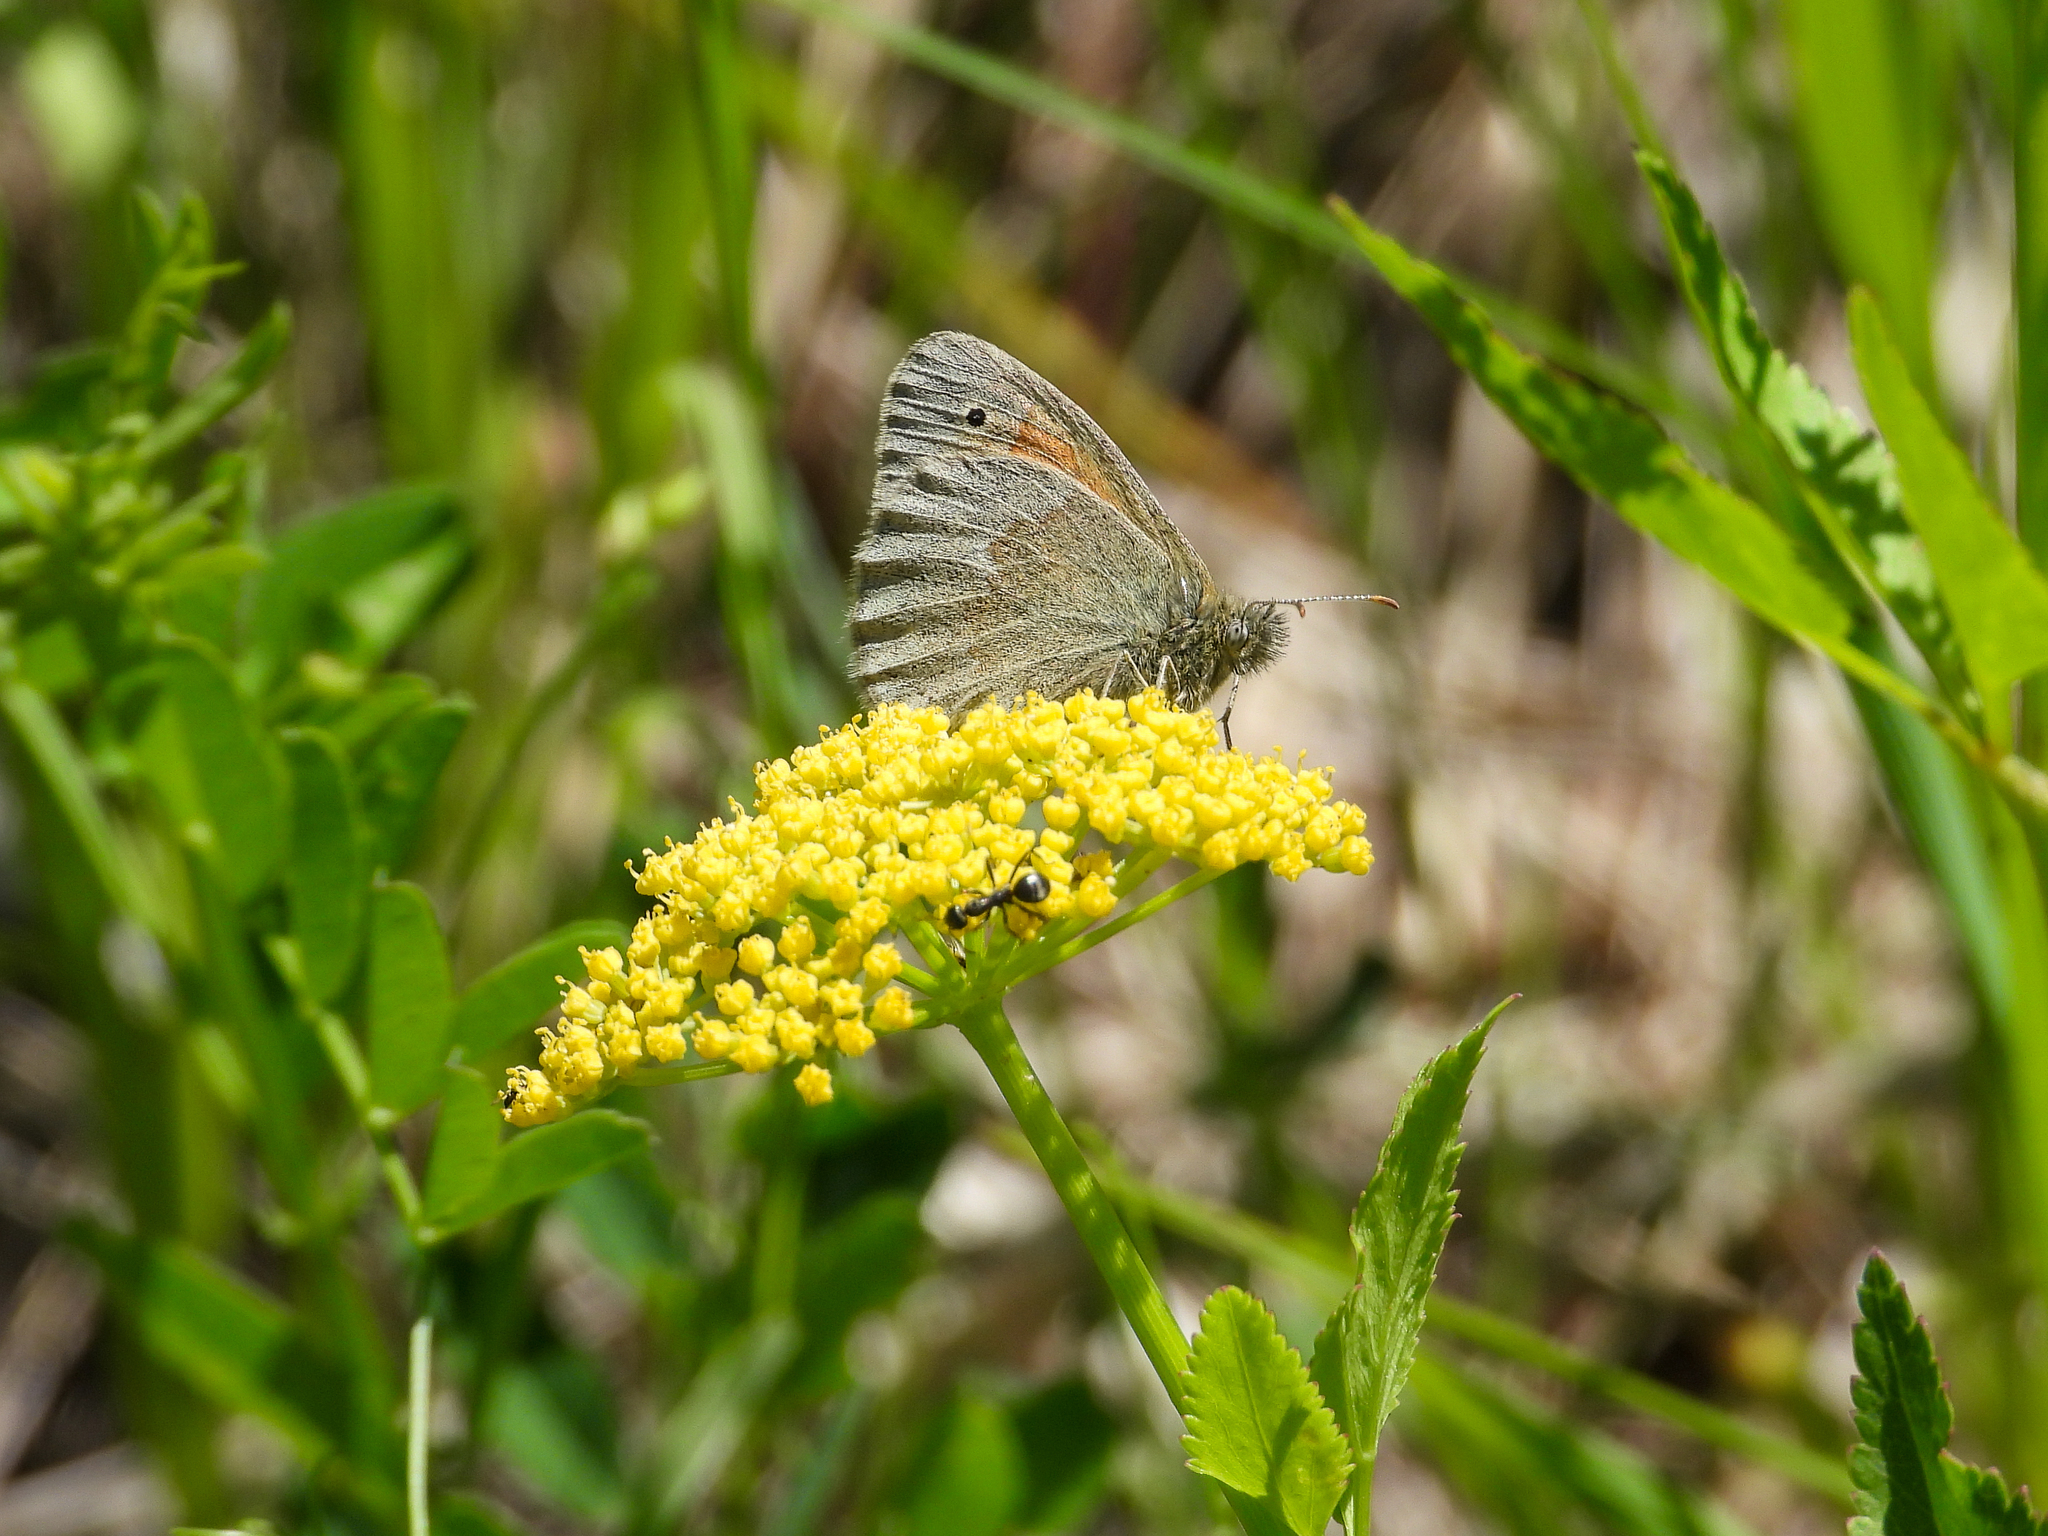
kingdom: Animalia
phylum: Arthropoda
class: Insecta
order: Lepidoptera
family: Nymphalidae
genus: Coenonympha
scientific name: Coenonympha california
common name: Common ringlet
